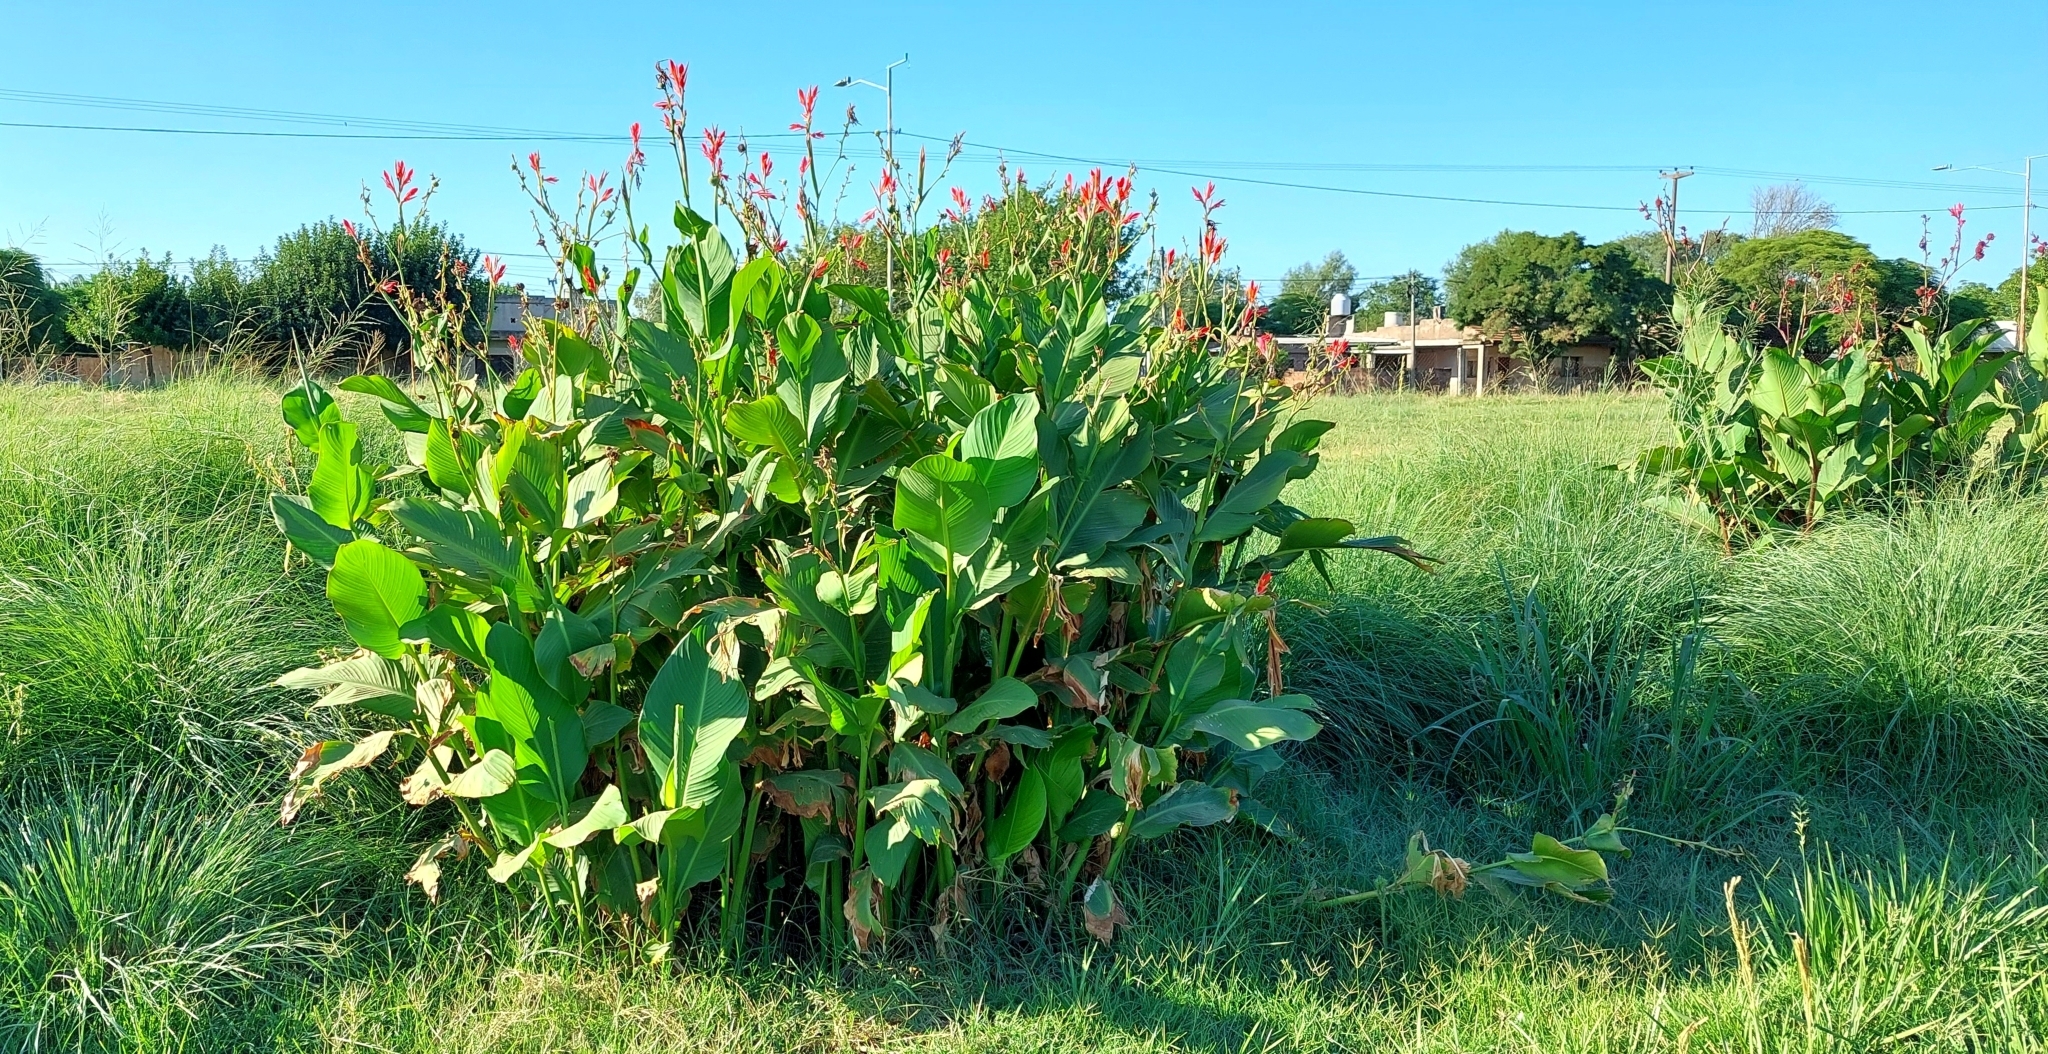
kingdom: Plantae
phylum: Tracheophyta
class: Liliopsida
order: Zingiberales
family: Cannaceae
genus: Canna
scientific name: Canna indica
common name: Indian shot
